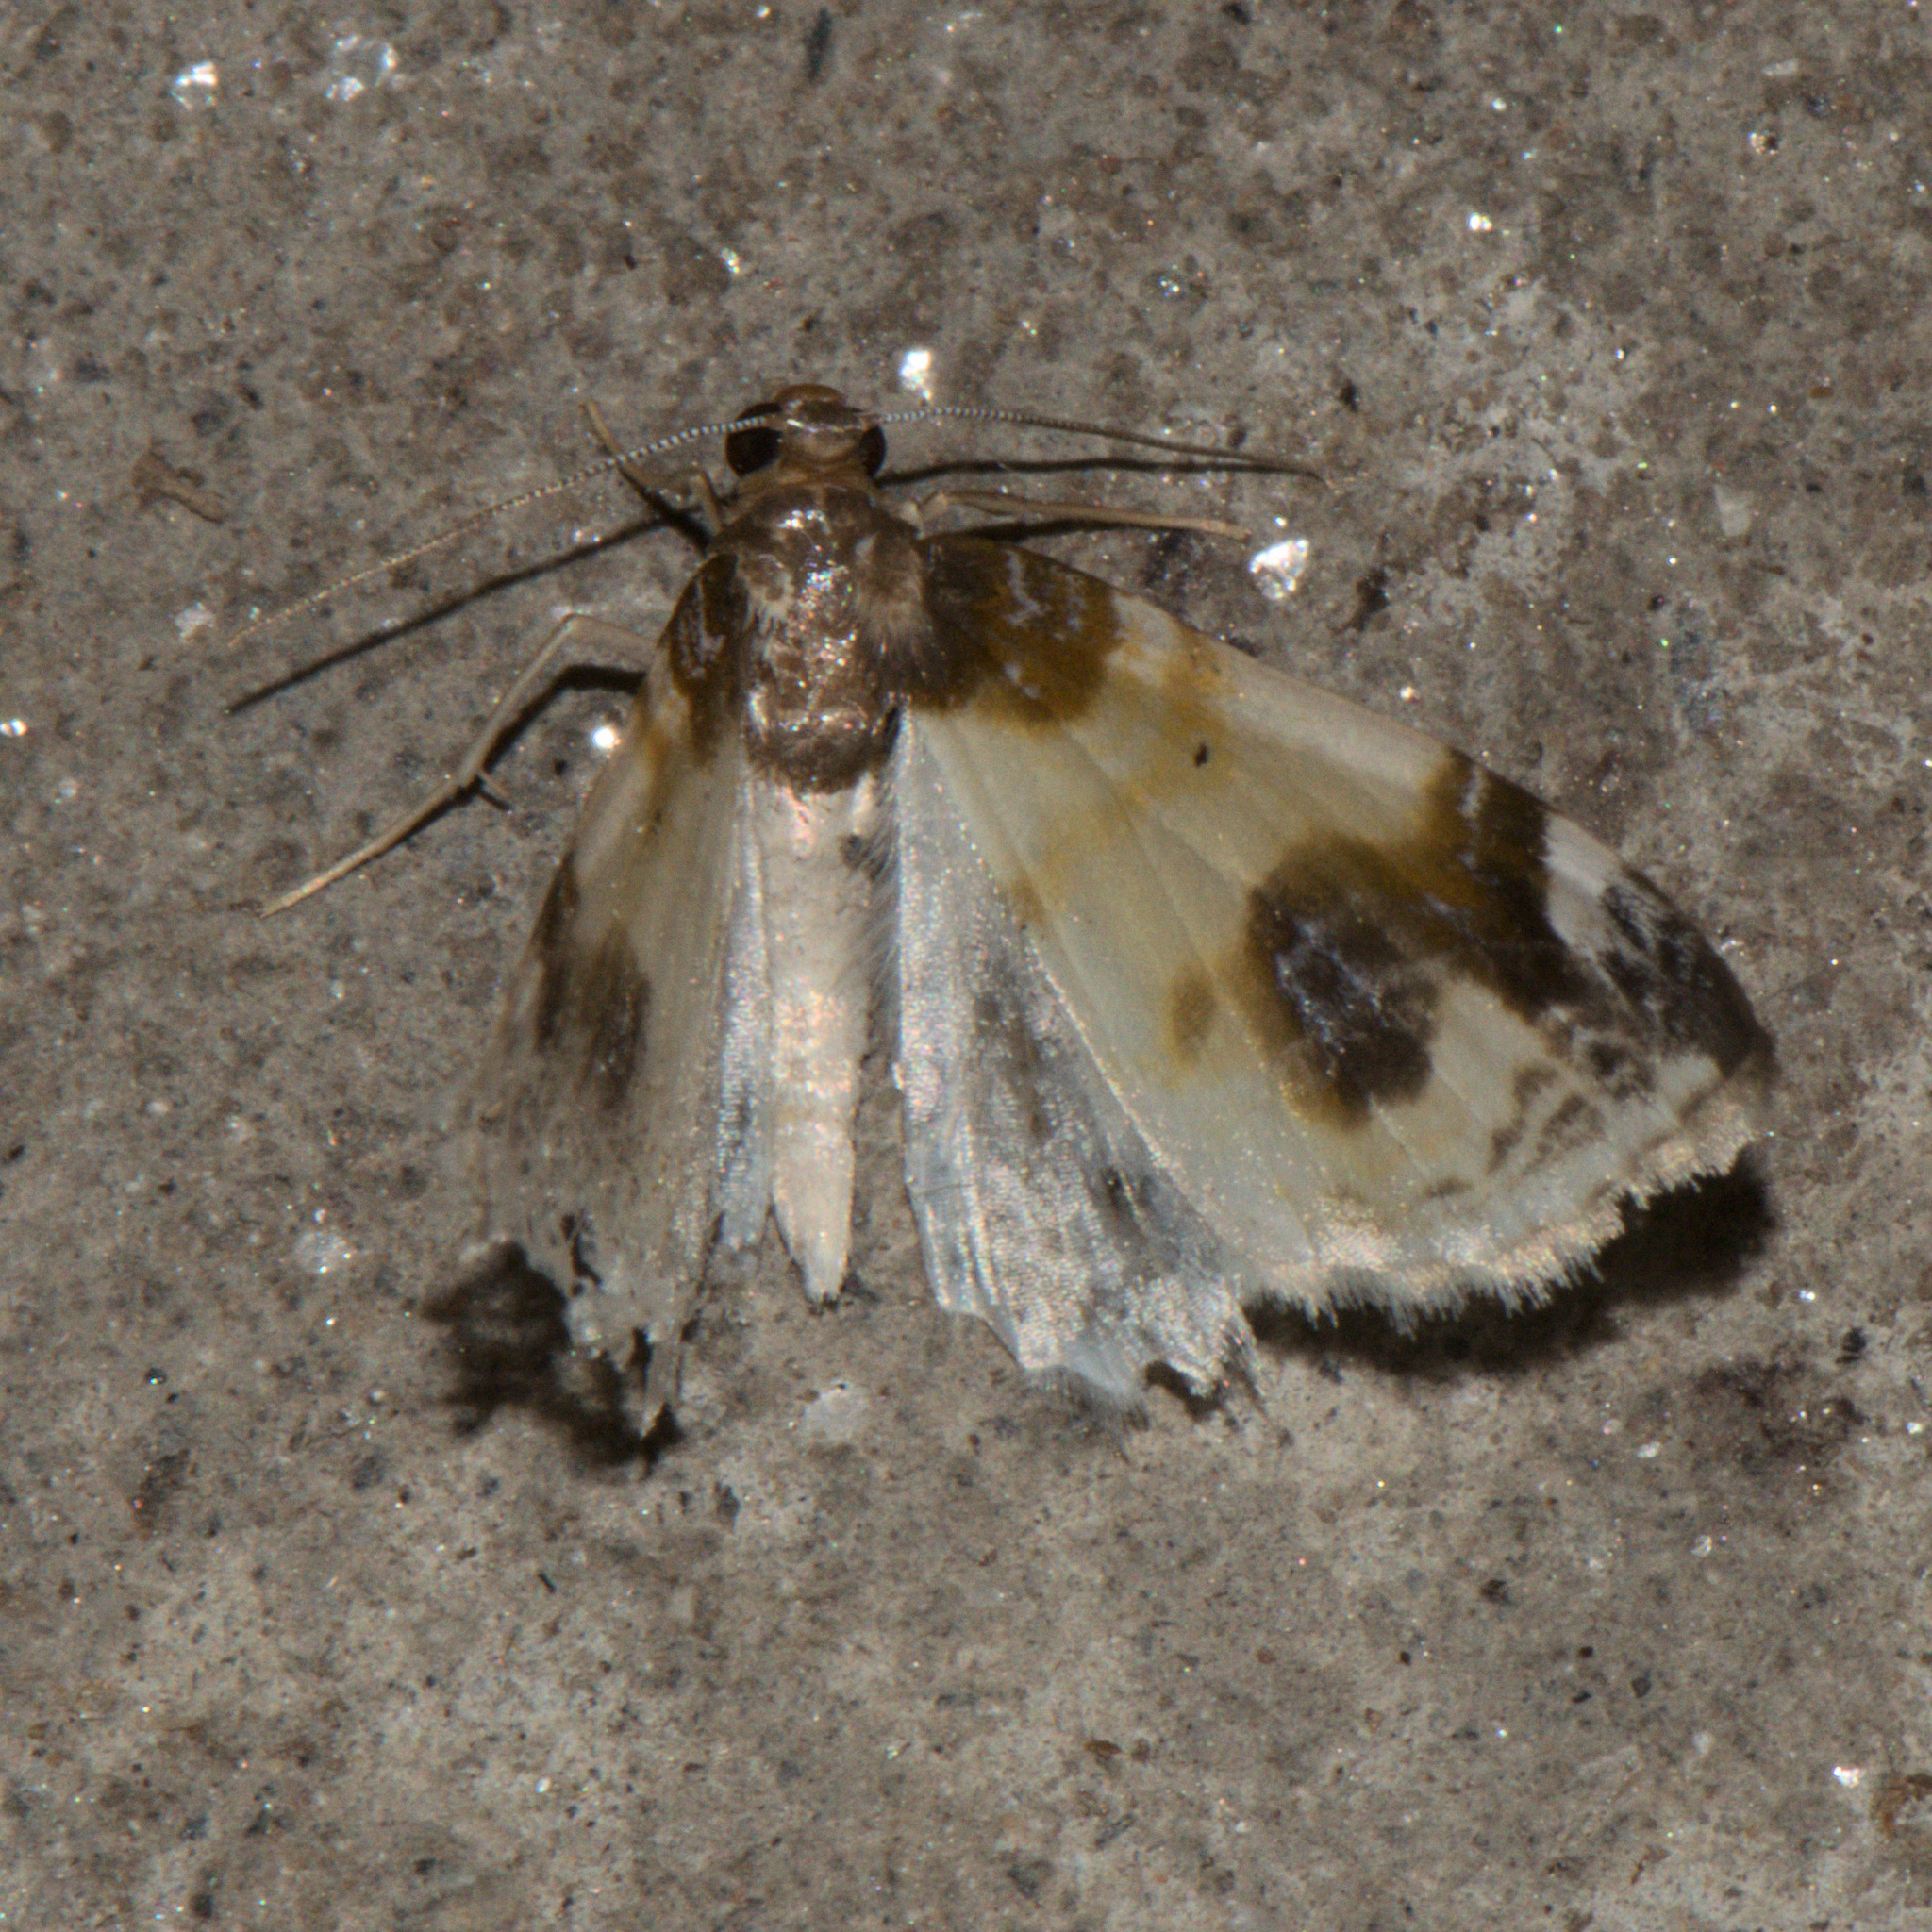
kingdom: Animalia
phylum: Arthropoda
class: Insecta
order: Lepidoptera
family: Geometridae
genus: Agnibesa
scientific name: Agnibesa pictaria
